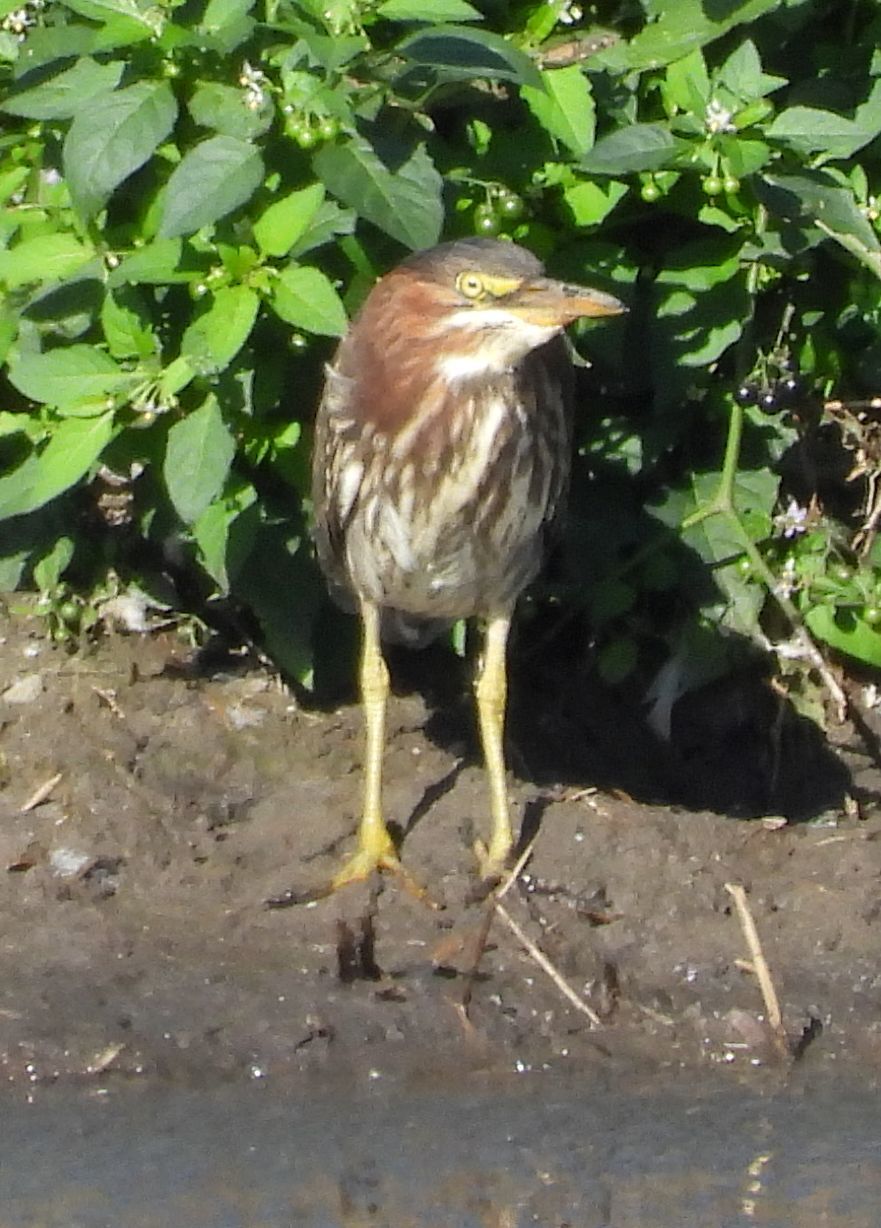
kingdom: Animalia
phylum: Chordata
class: Aves
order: Pelecaniformes
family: Ardeidae
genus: Butorides
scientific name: Butorides virescens
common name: Green heron
